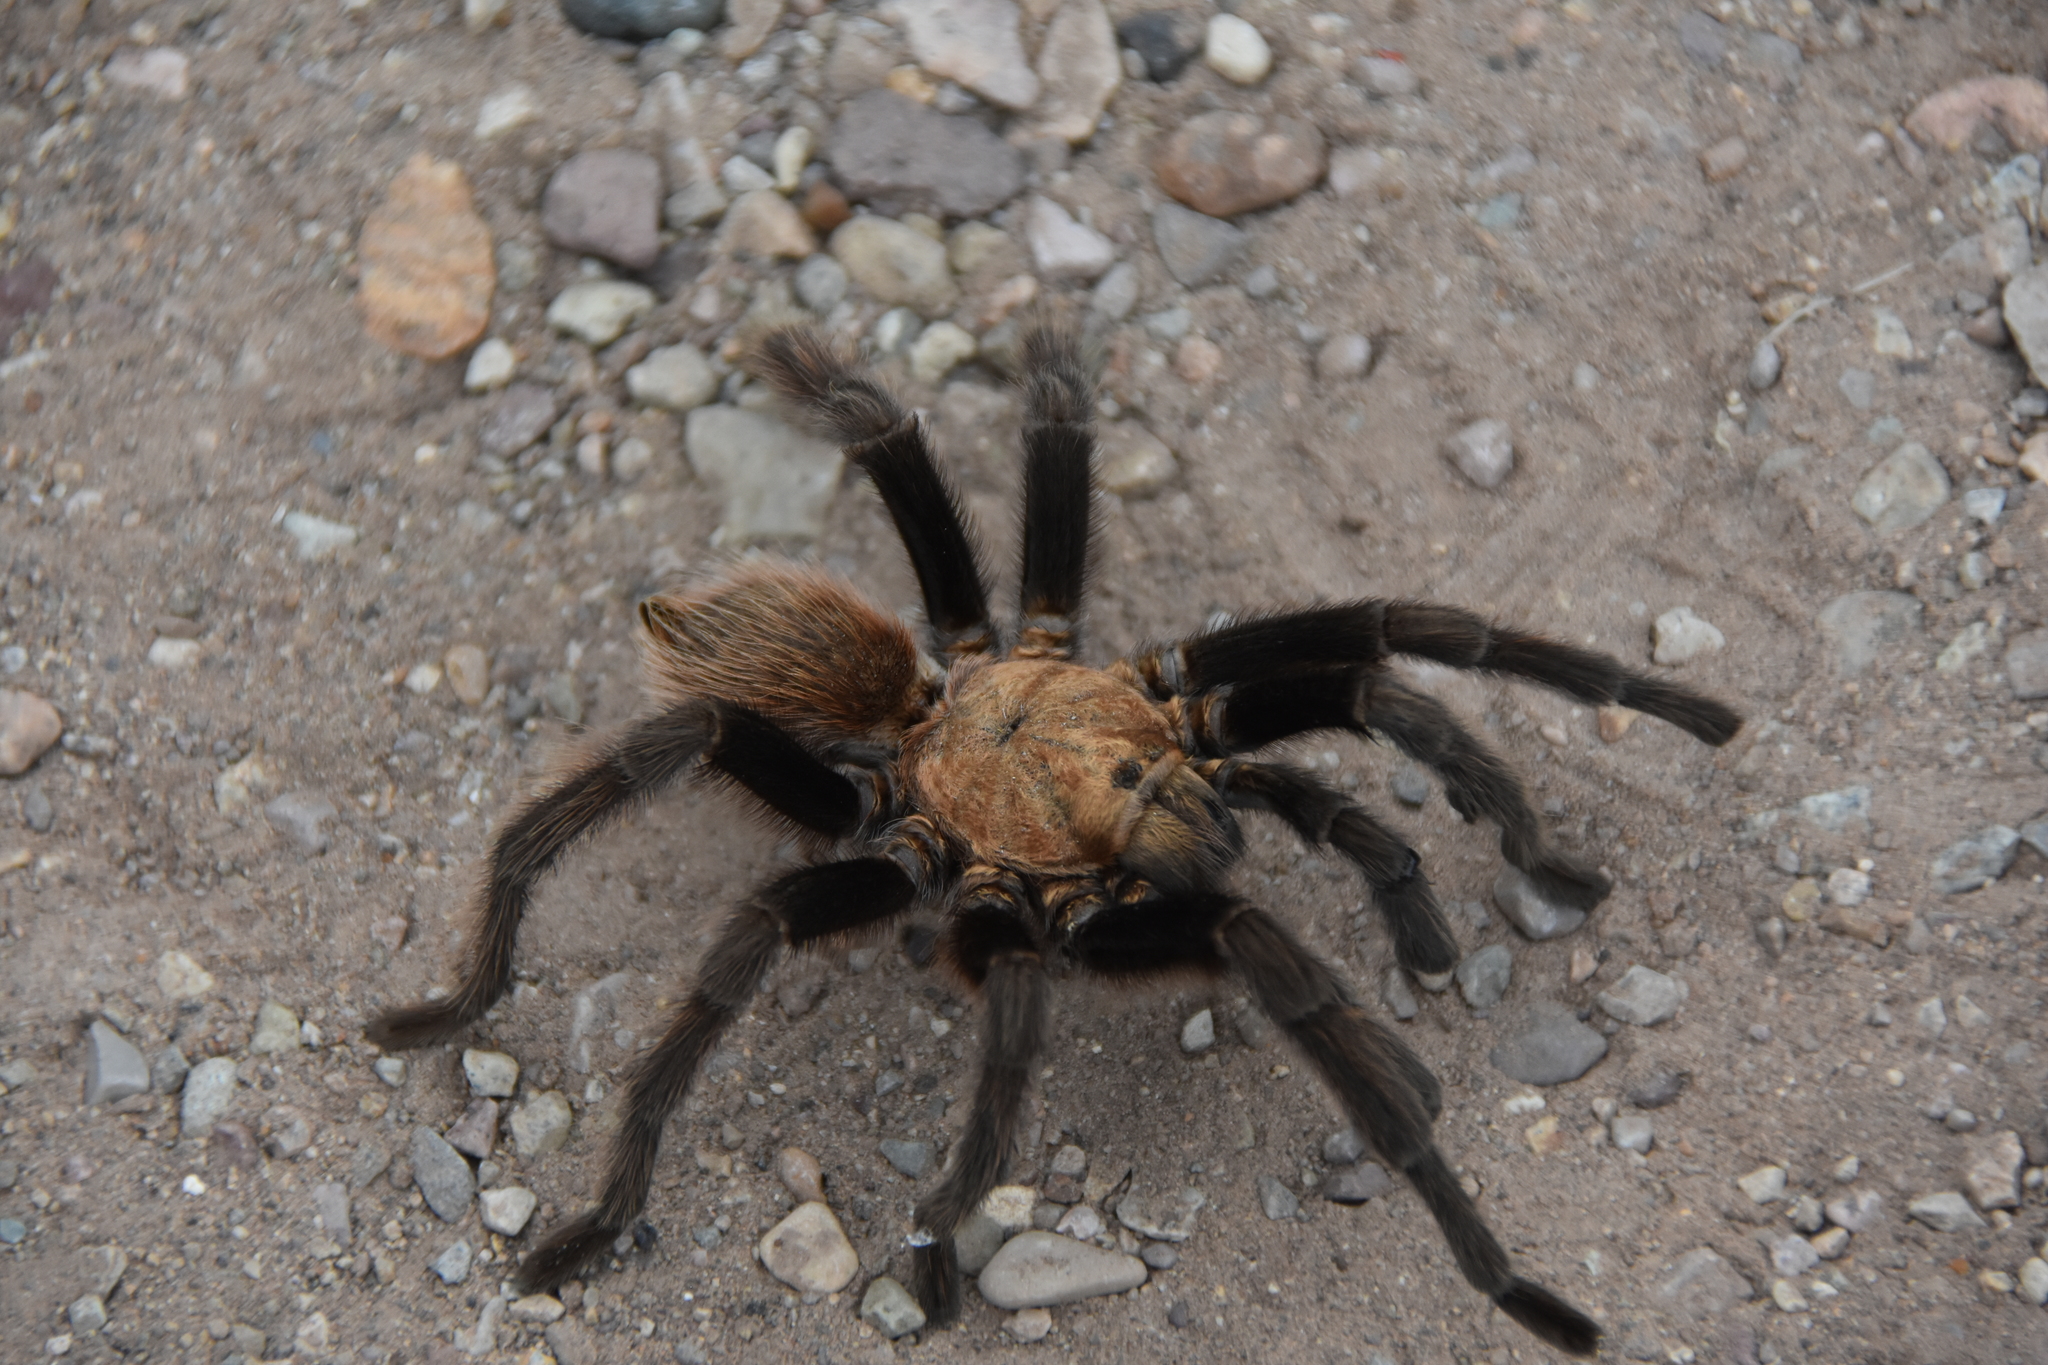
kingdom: Animalia
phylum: Arthropoda
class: Arachnida
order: Araneae
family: Theraphosidae
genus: Aphonopelma
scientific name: Aphonopelma hentzi
